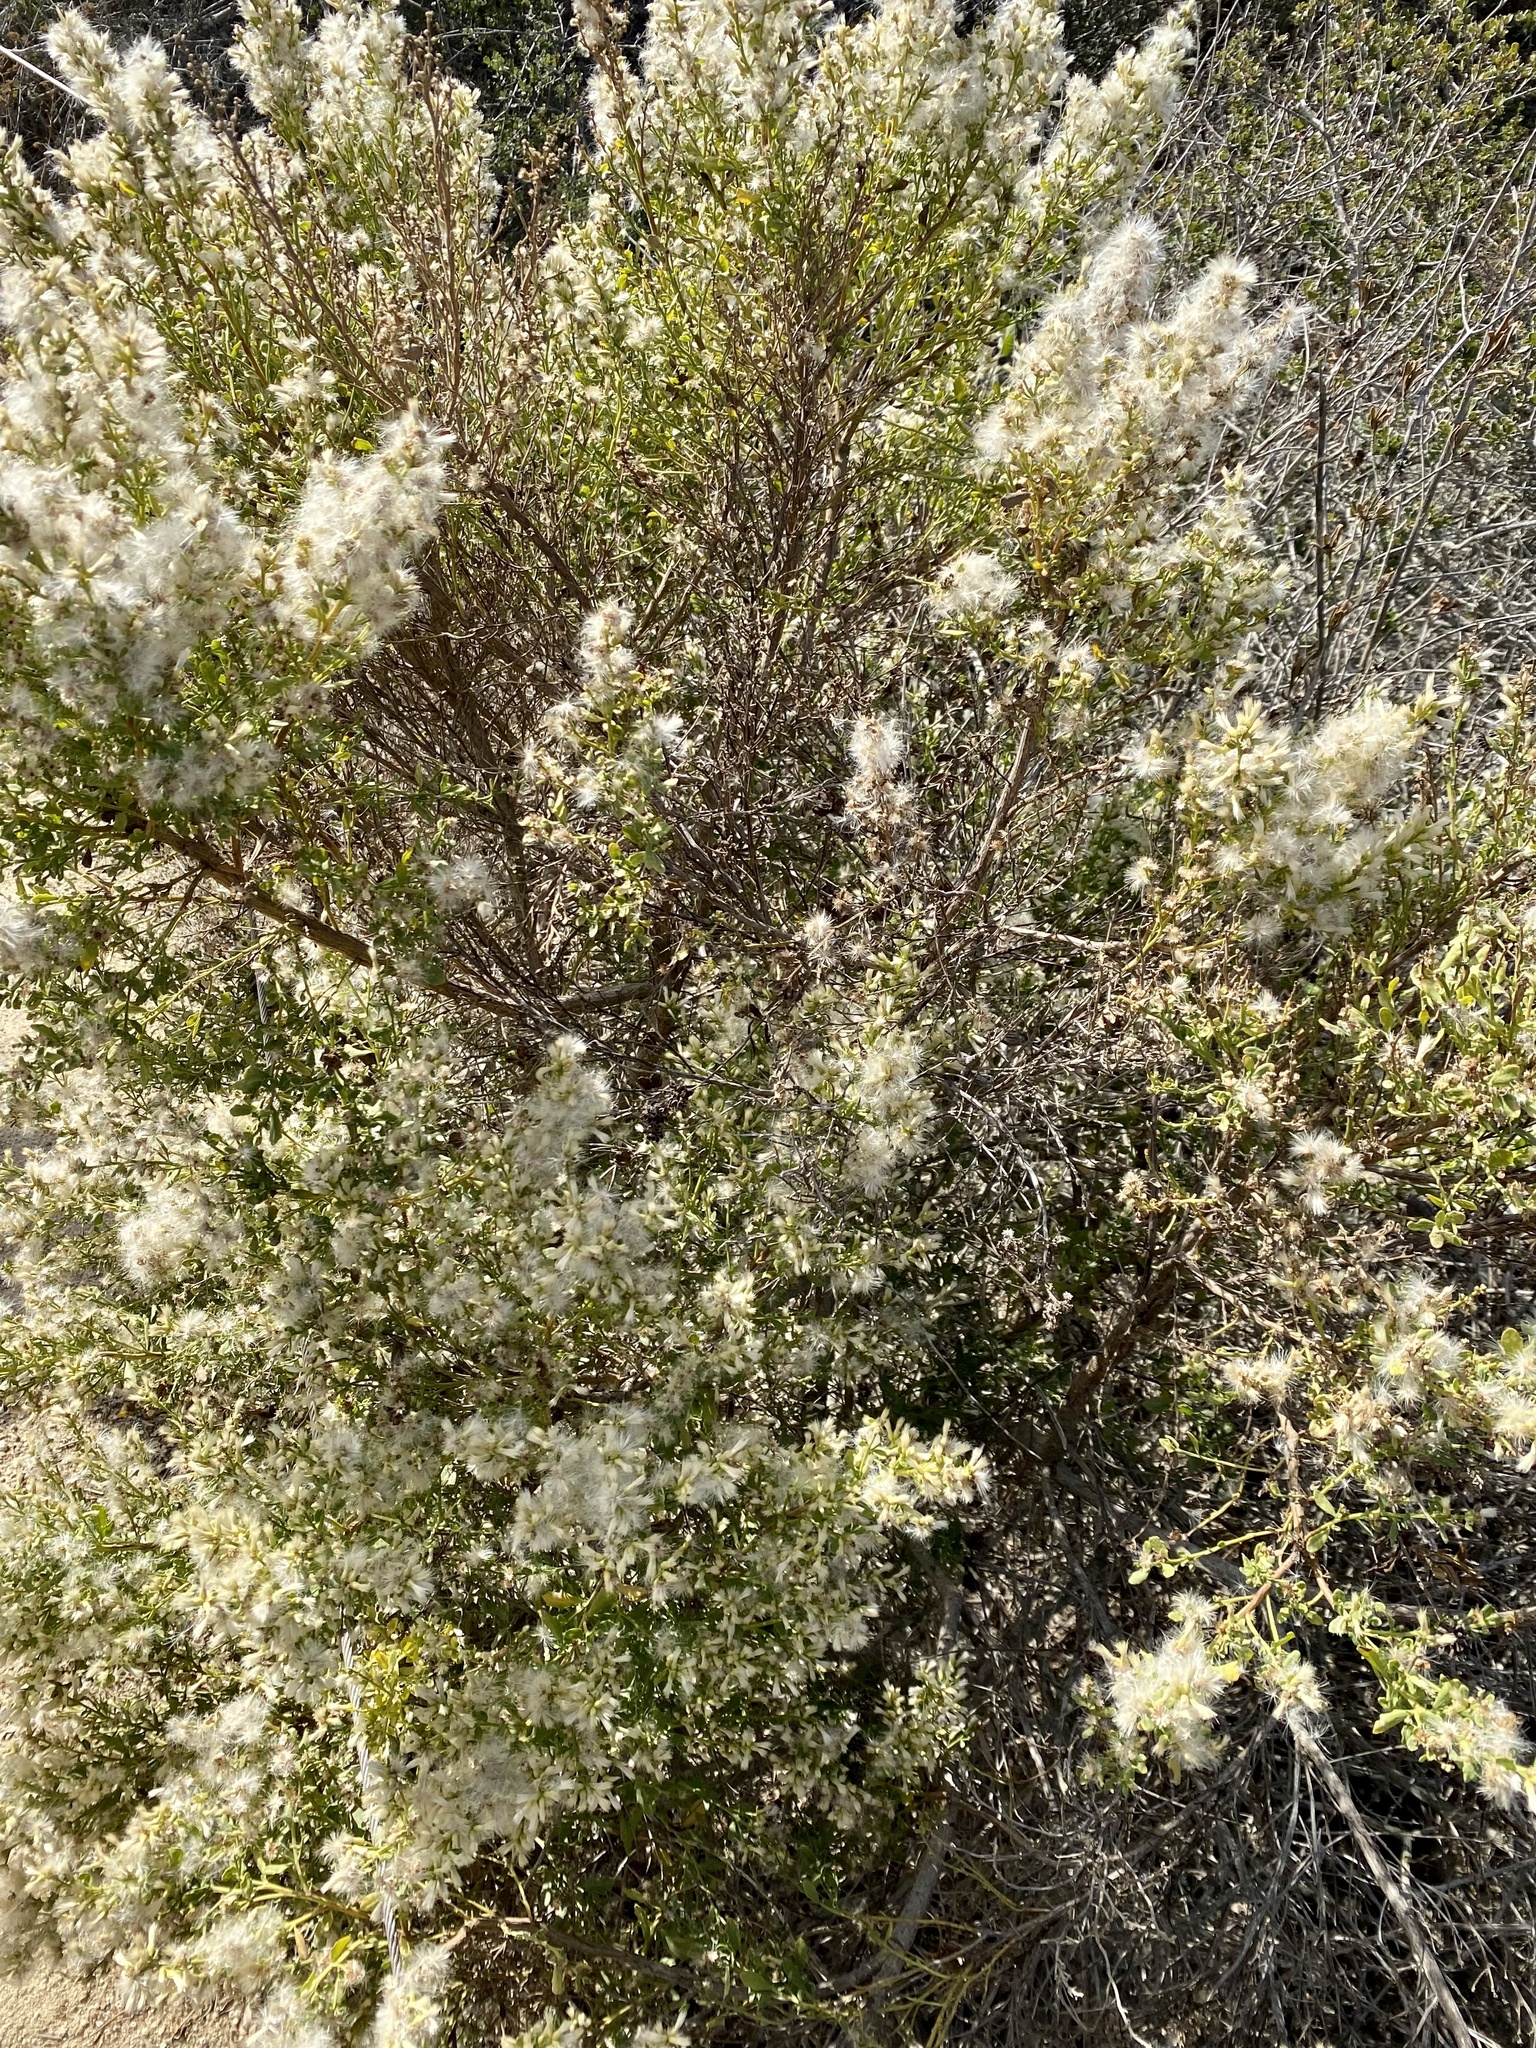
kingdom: Plantae
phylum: Tracheophyta
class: Magnoliopsida
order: Asterales
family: Asteraceae
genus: Baccharis
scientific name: Baccharis pilularis
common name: Coyotebrush
